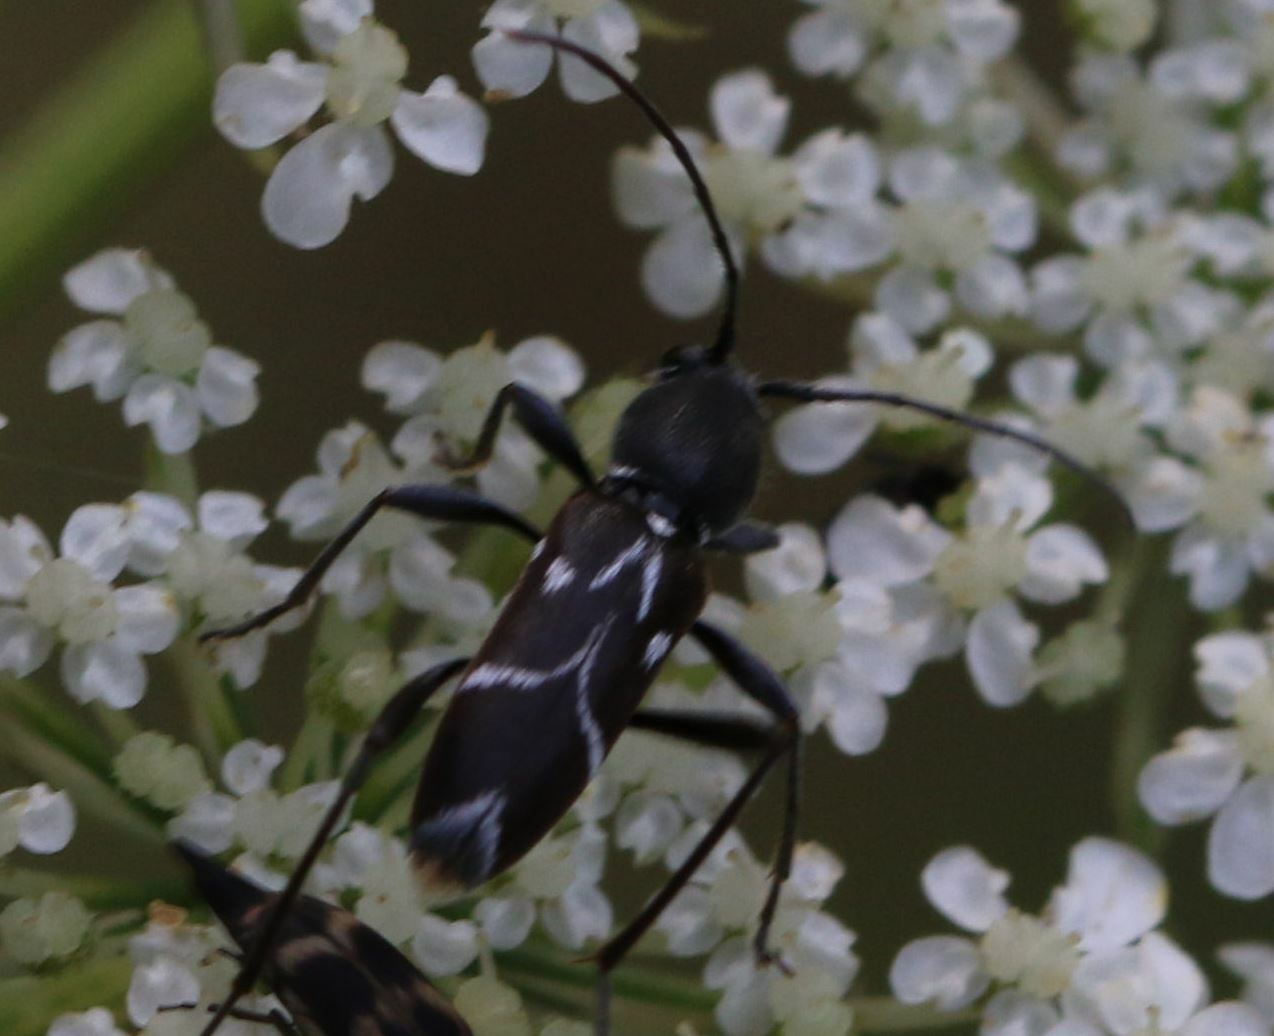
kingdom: Animalia
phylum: Arthropoda
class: Insecta
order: Coleoptera
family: Cerambycidae
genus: Chlorophorus
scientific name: Chlorophorus sartor
